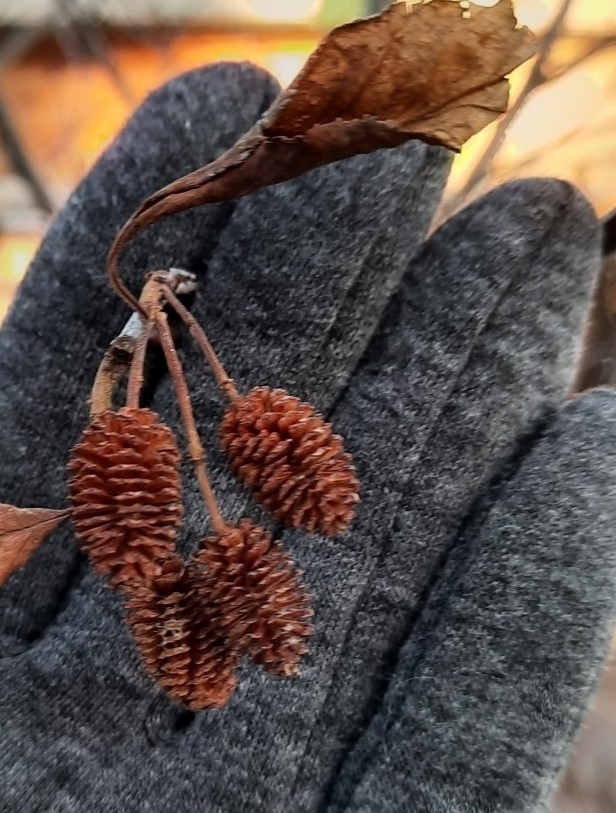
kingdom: Plantae
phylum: Tracheophyta
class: Magnoliopsida
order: Fagales
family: Betulaceae
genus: Alnus
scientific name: Alnus alnobetula
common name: Green alder
